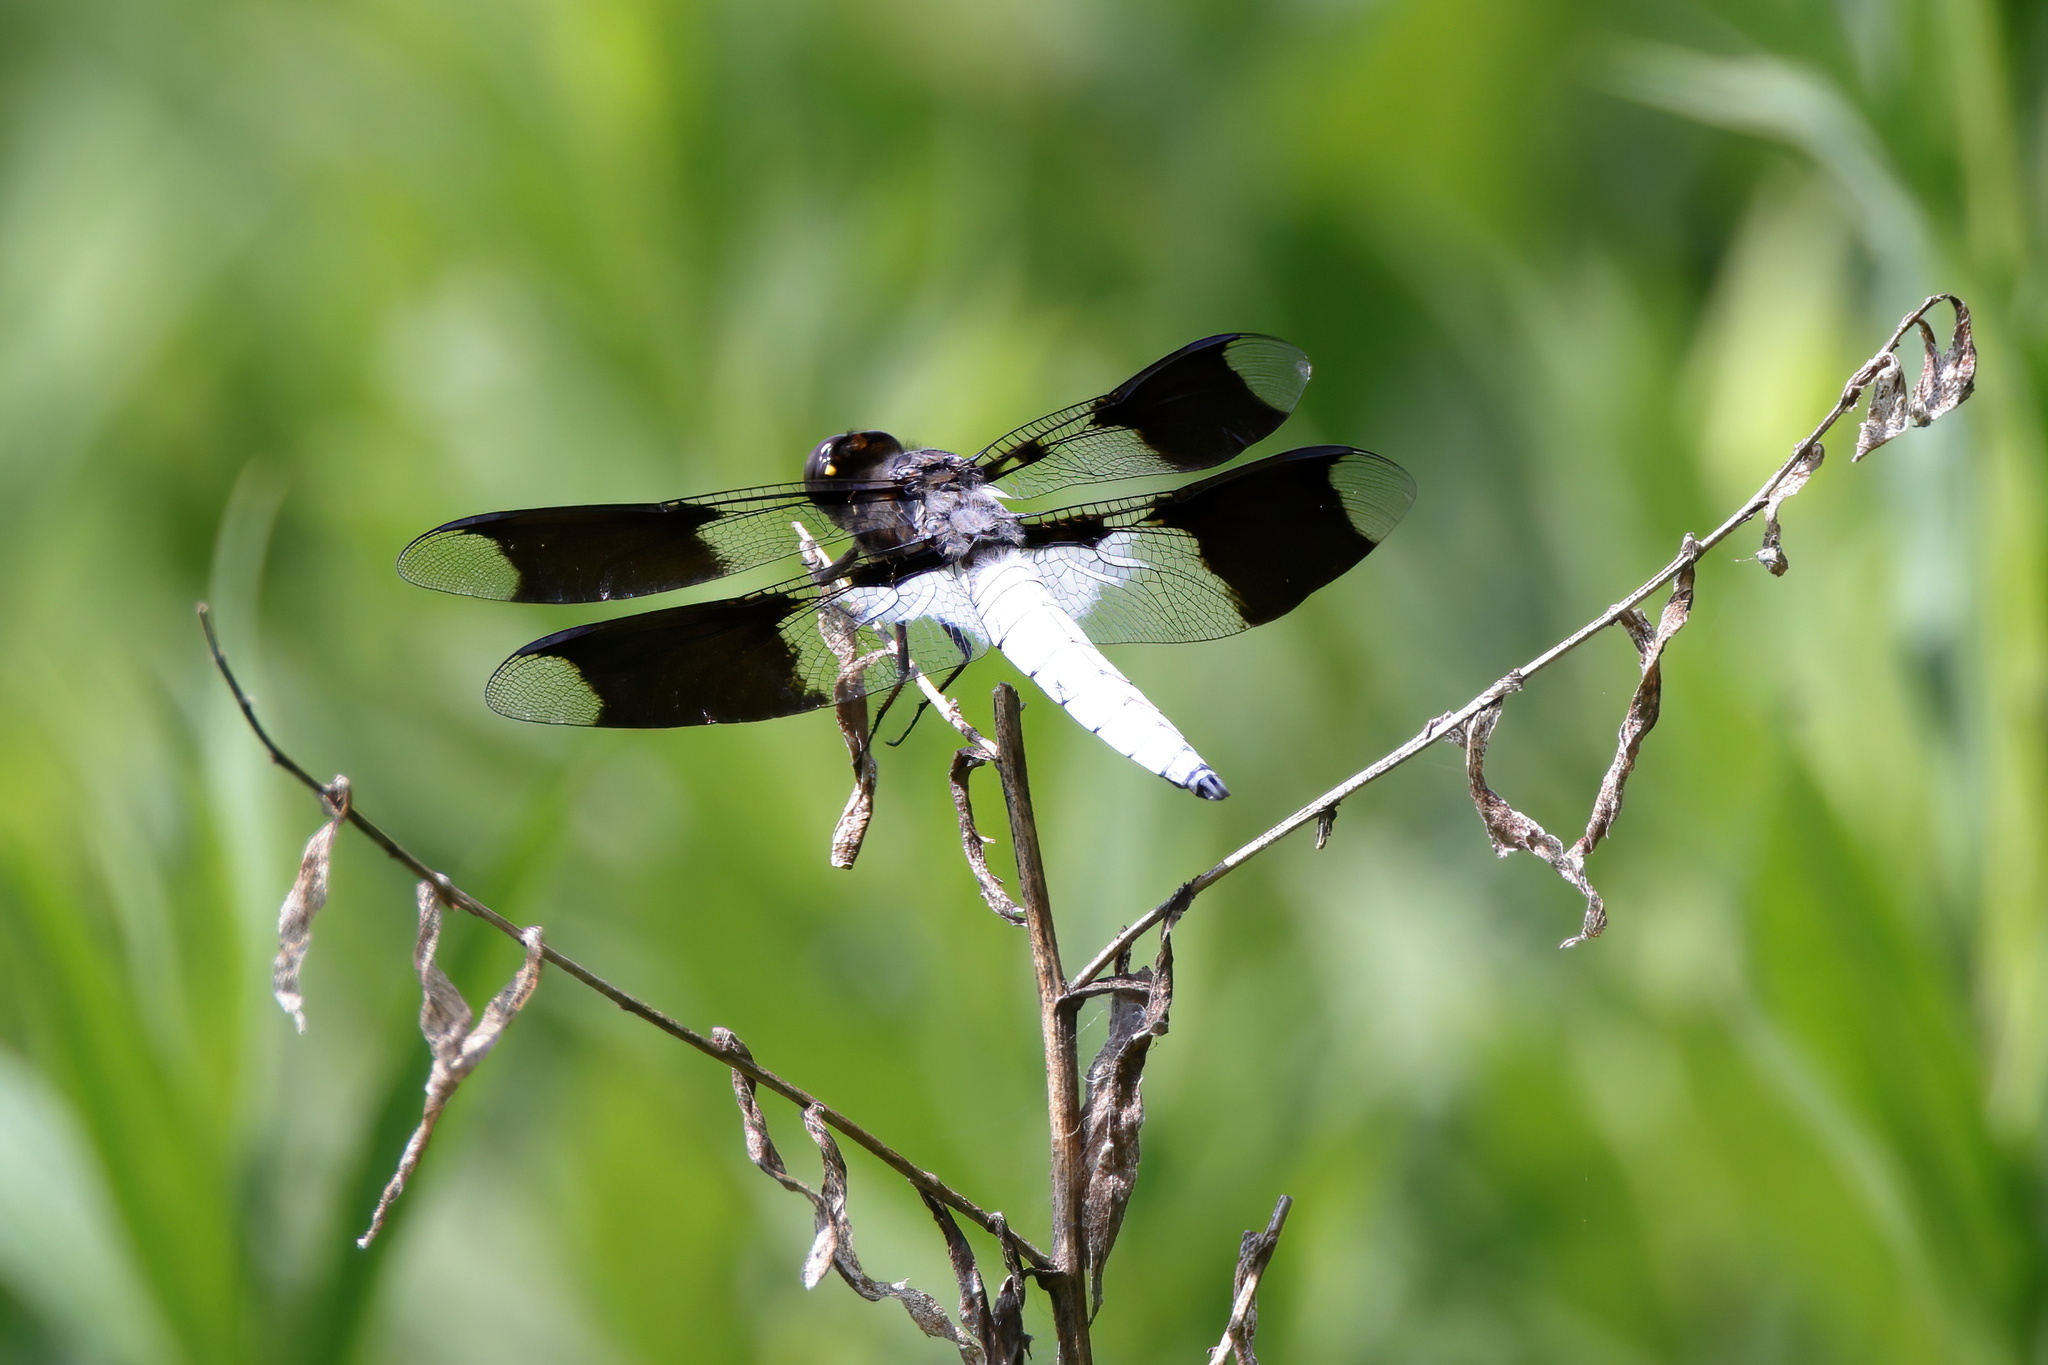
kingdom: Animalia
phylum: Arthropoda
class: Insecta
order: Odonata
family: Libellulidae
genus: Plathemis
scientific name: Plathemis lydia
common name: Common whitetail
